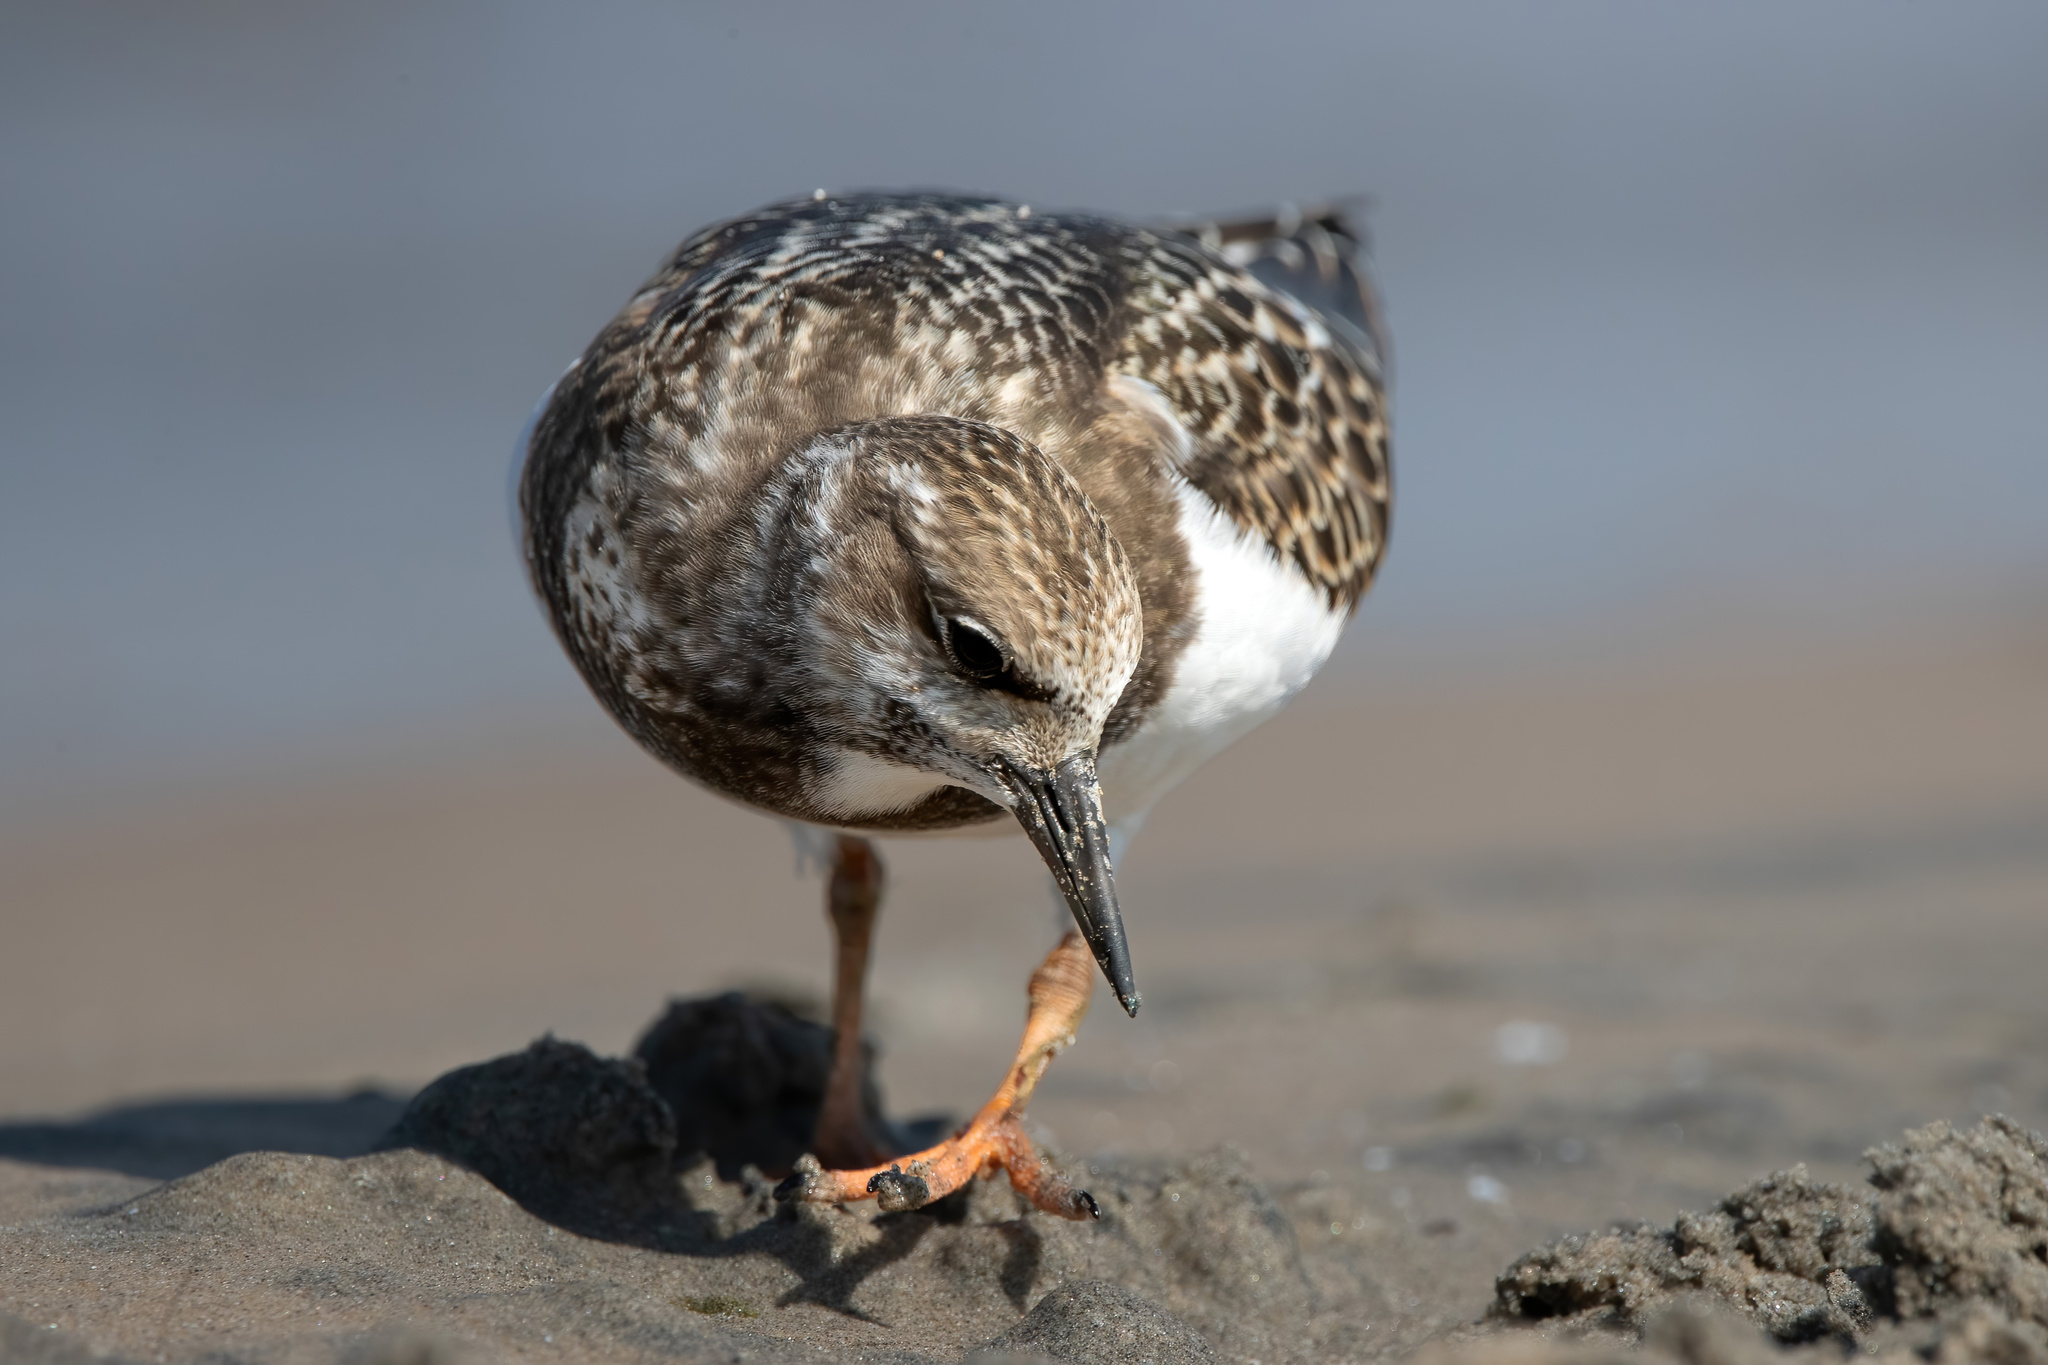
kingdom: Animalia
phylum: Chordata
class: Aves
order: Charadriiformes
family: Scolopacidae
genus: Arenaria
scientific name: Arenaria interpres
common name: Ruddy turnstone
